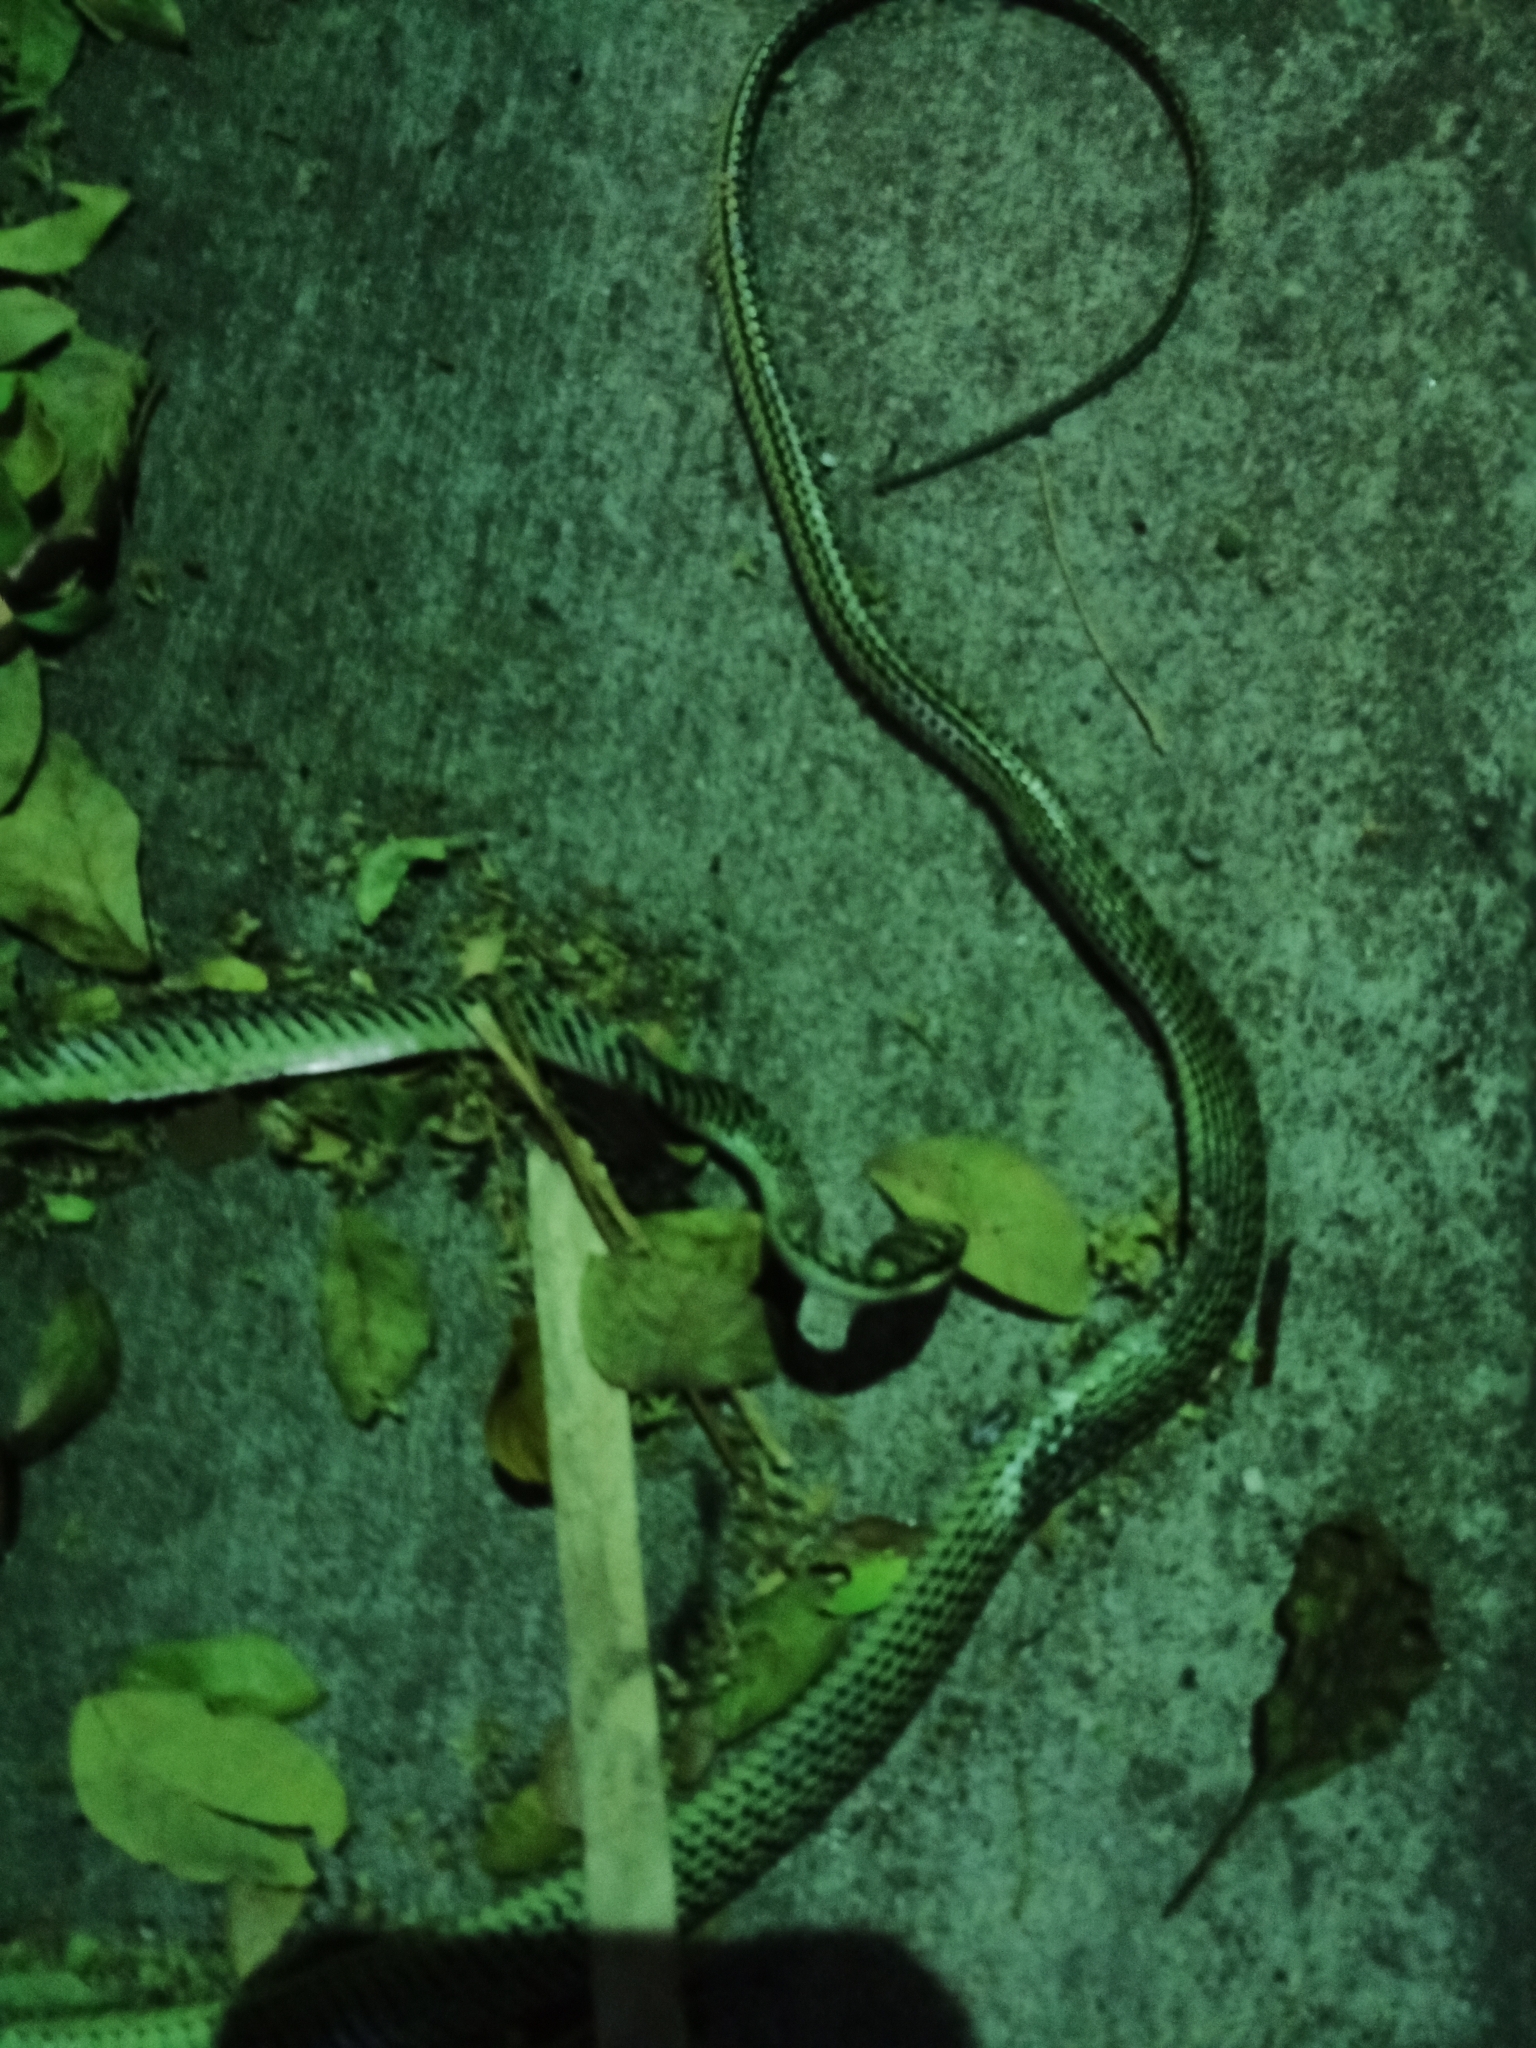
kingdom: Animalia
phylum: Chordata
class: Squamata
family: Colubridae
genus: Chrysopelea
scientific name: Chrysopelea ornata
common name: Golden flying snake
